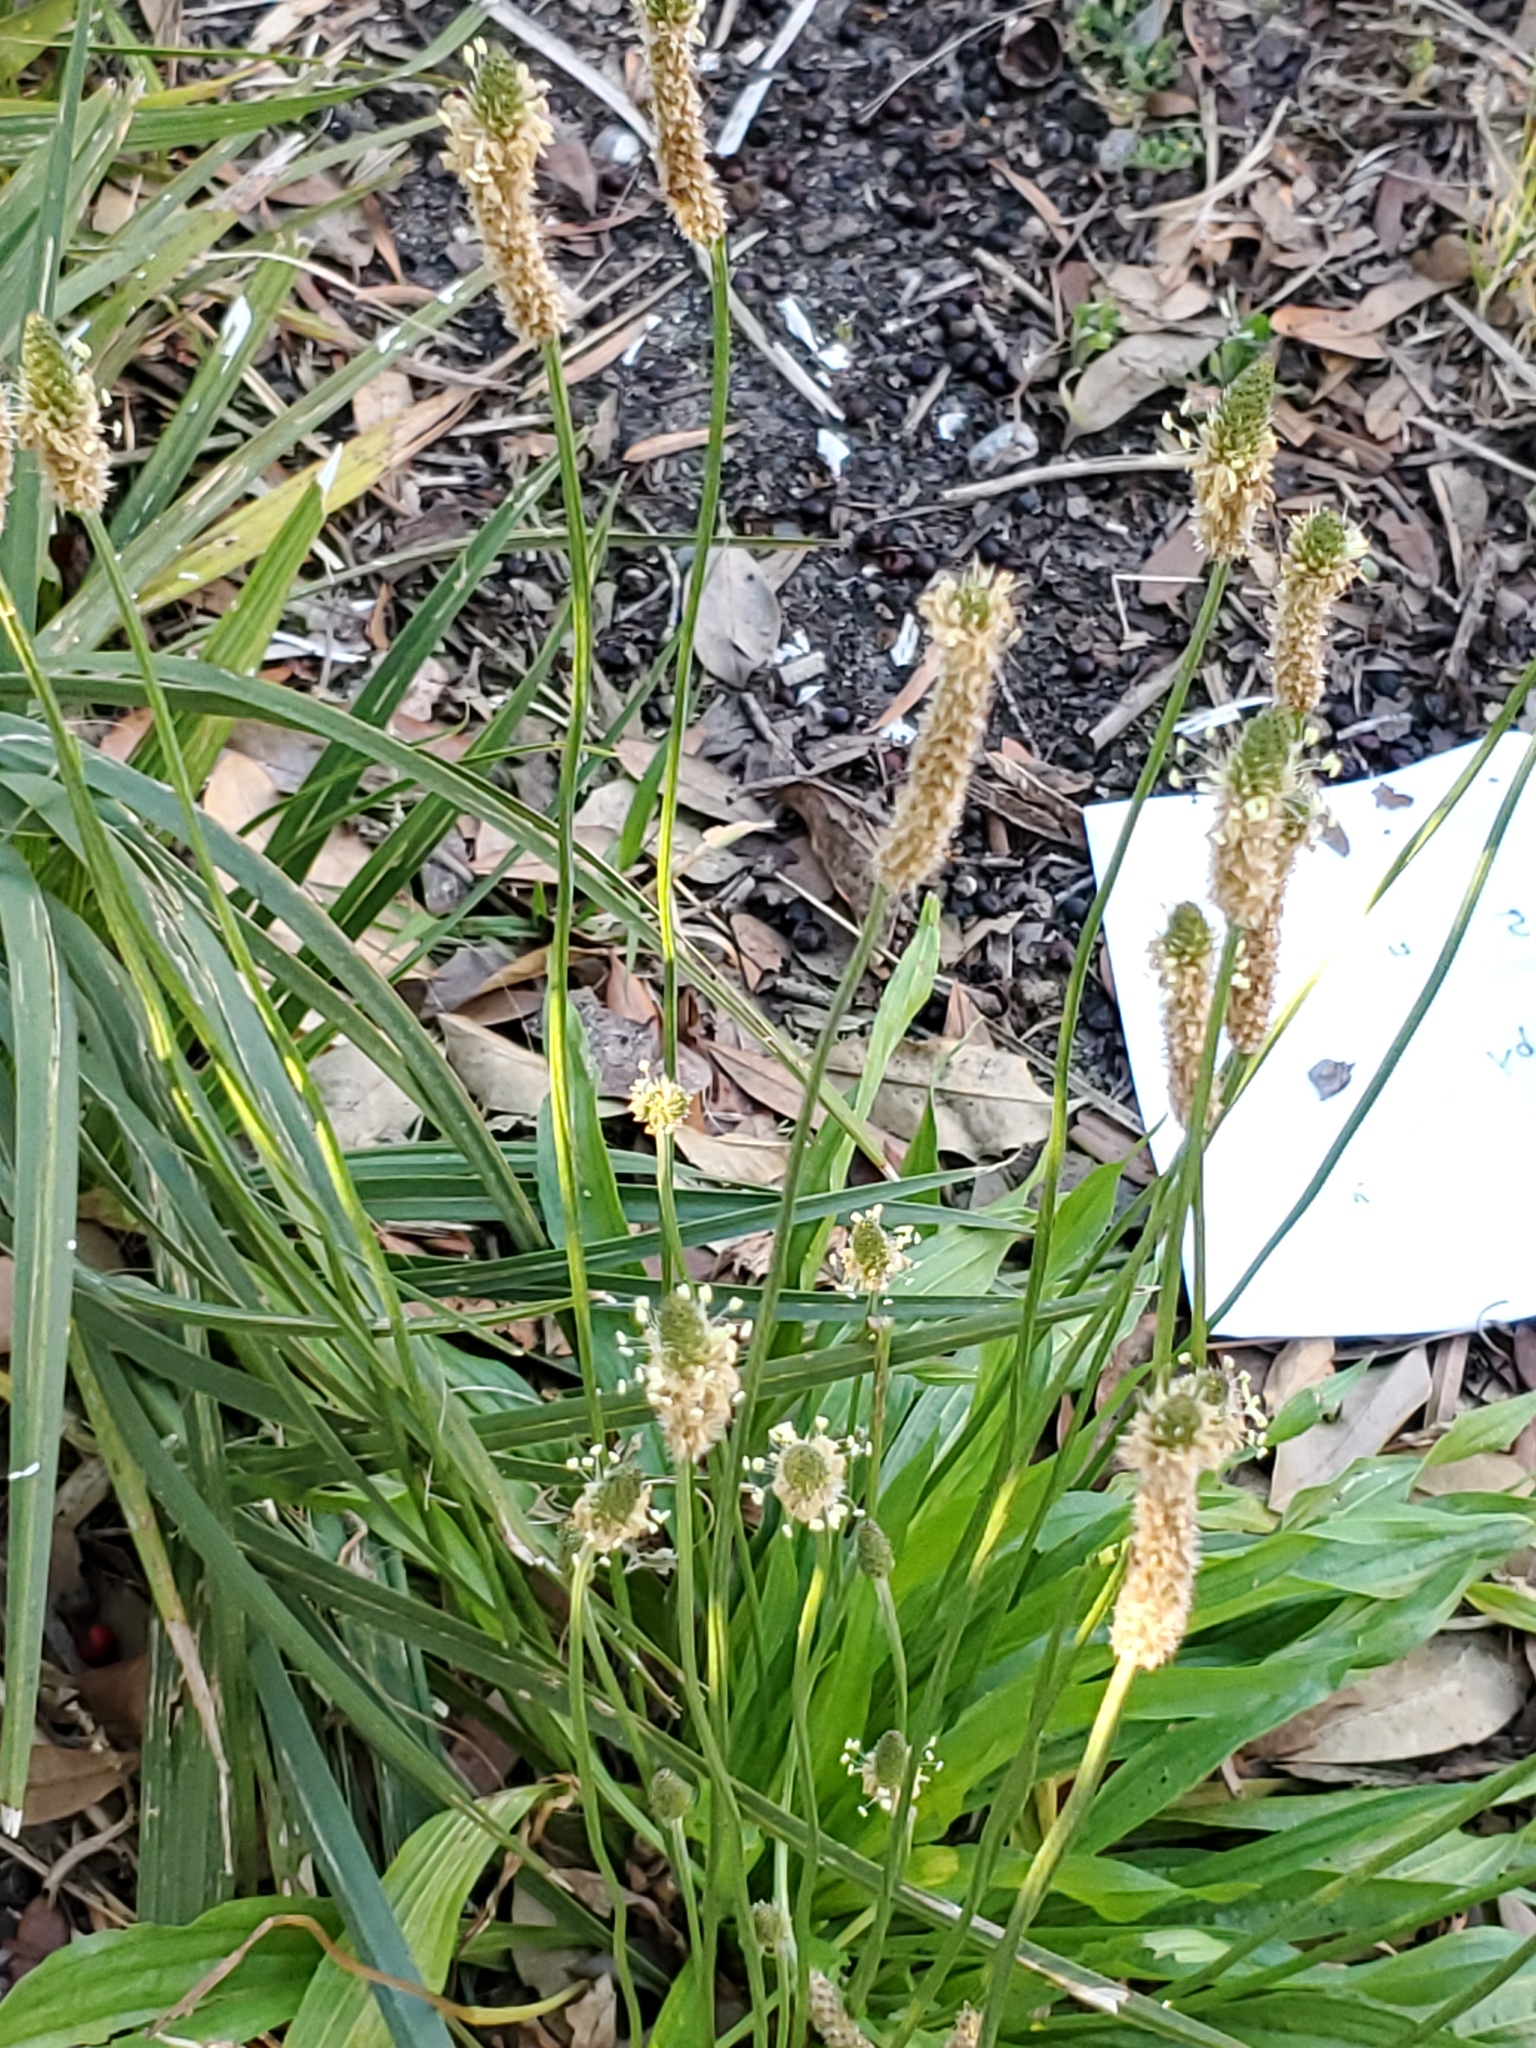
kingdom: Plantae
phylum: Tracheophyta
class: Magnoliopsida
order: Lamiales
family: Plantaginaceae
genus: Plantago
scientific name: Plantago lanceolata
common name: Ribwort plantain
